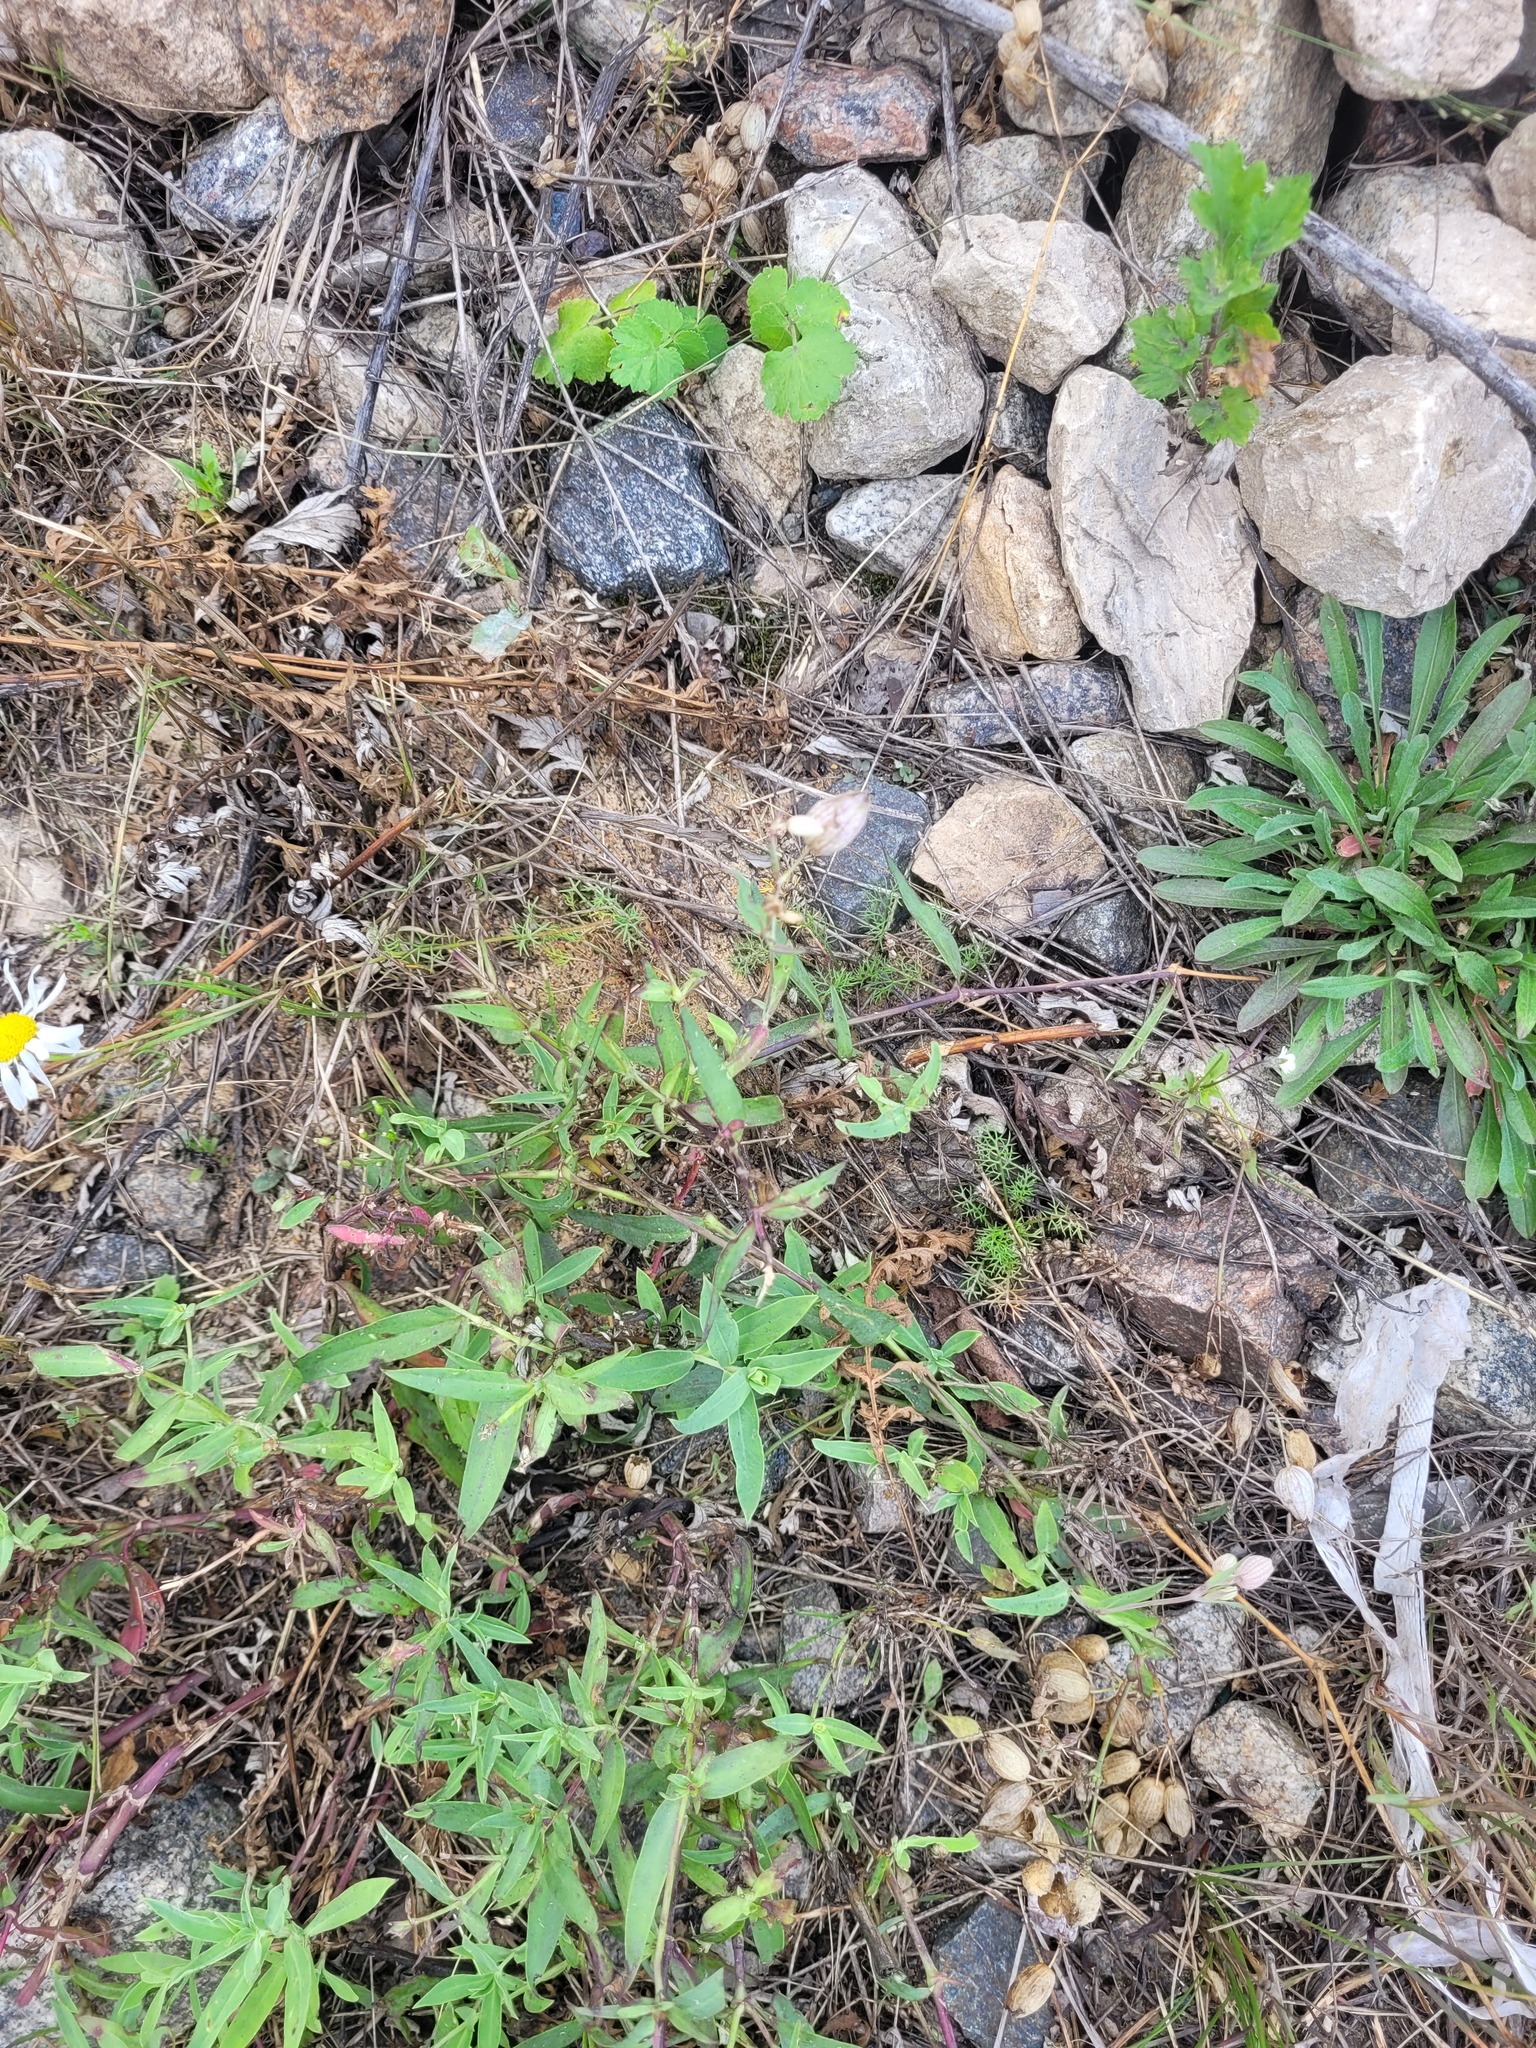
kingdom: Plantae
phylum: Tracheophyta
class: Magnoliopsida
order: Caryophyllales
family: Caryophyllaceae
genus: Silene
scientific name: Silene vulgaris
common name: Bladder campion
